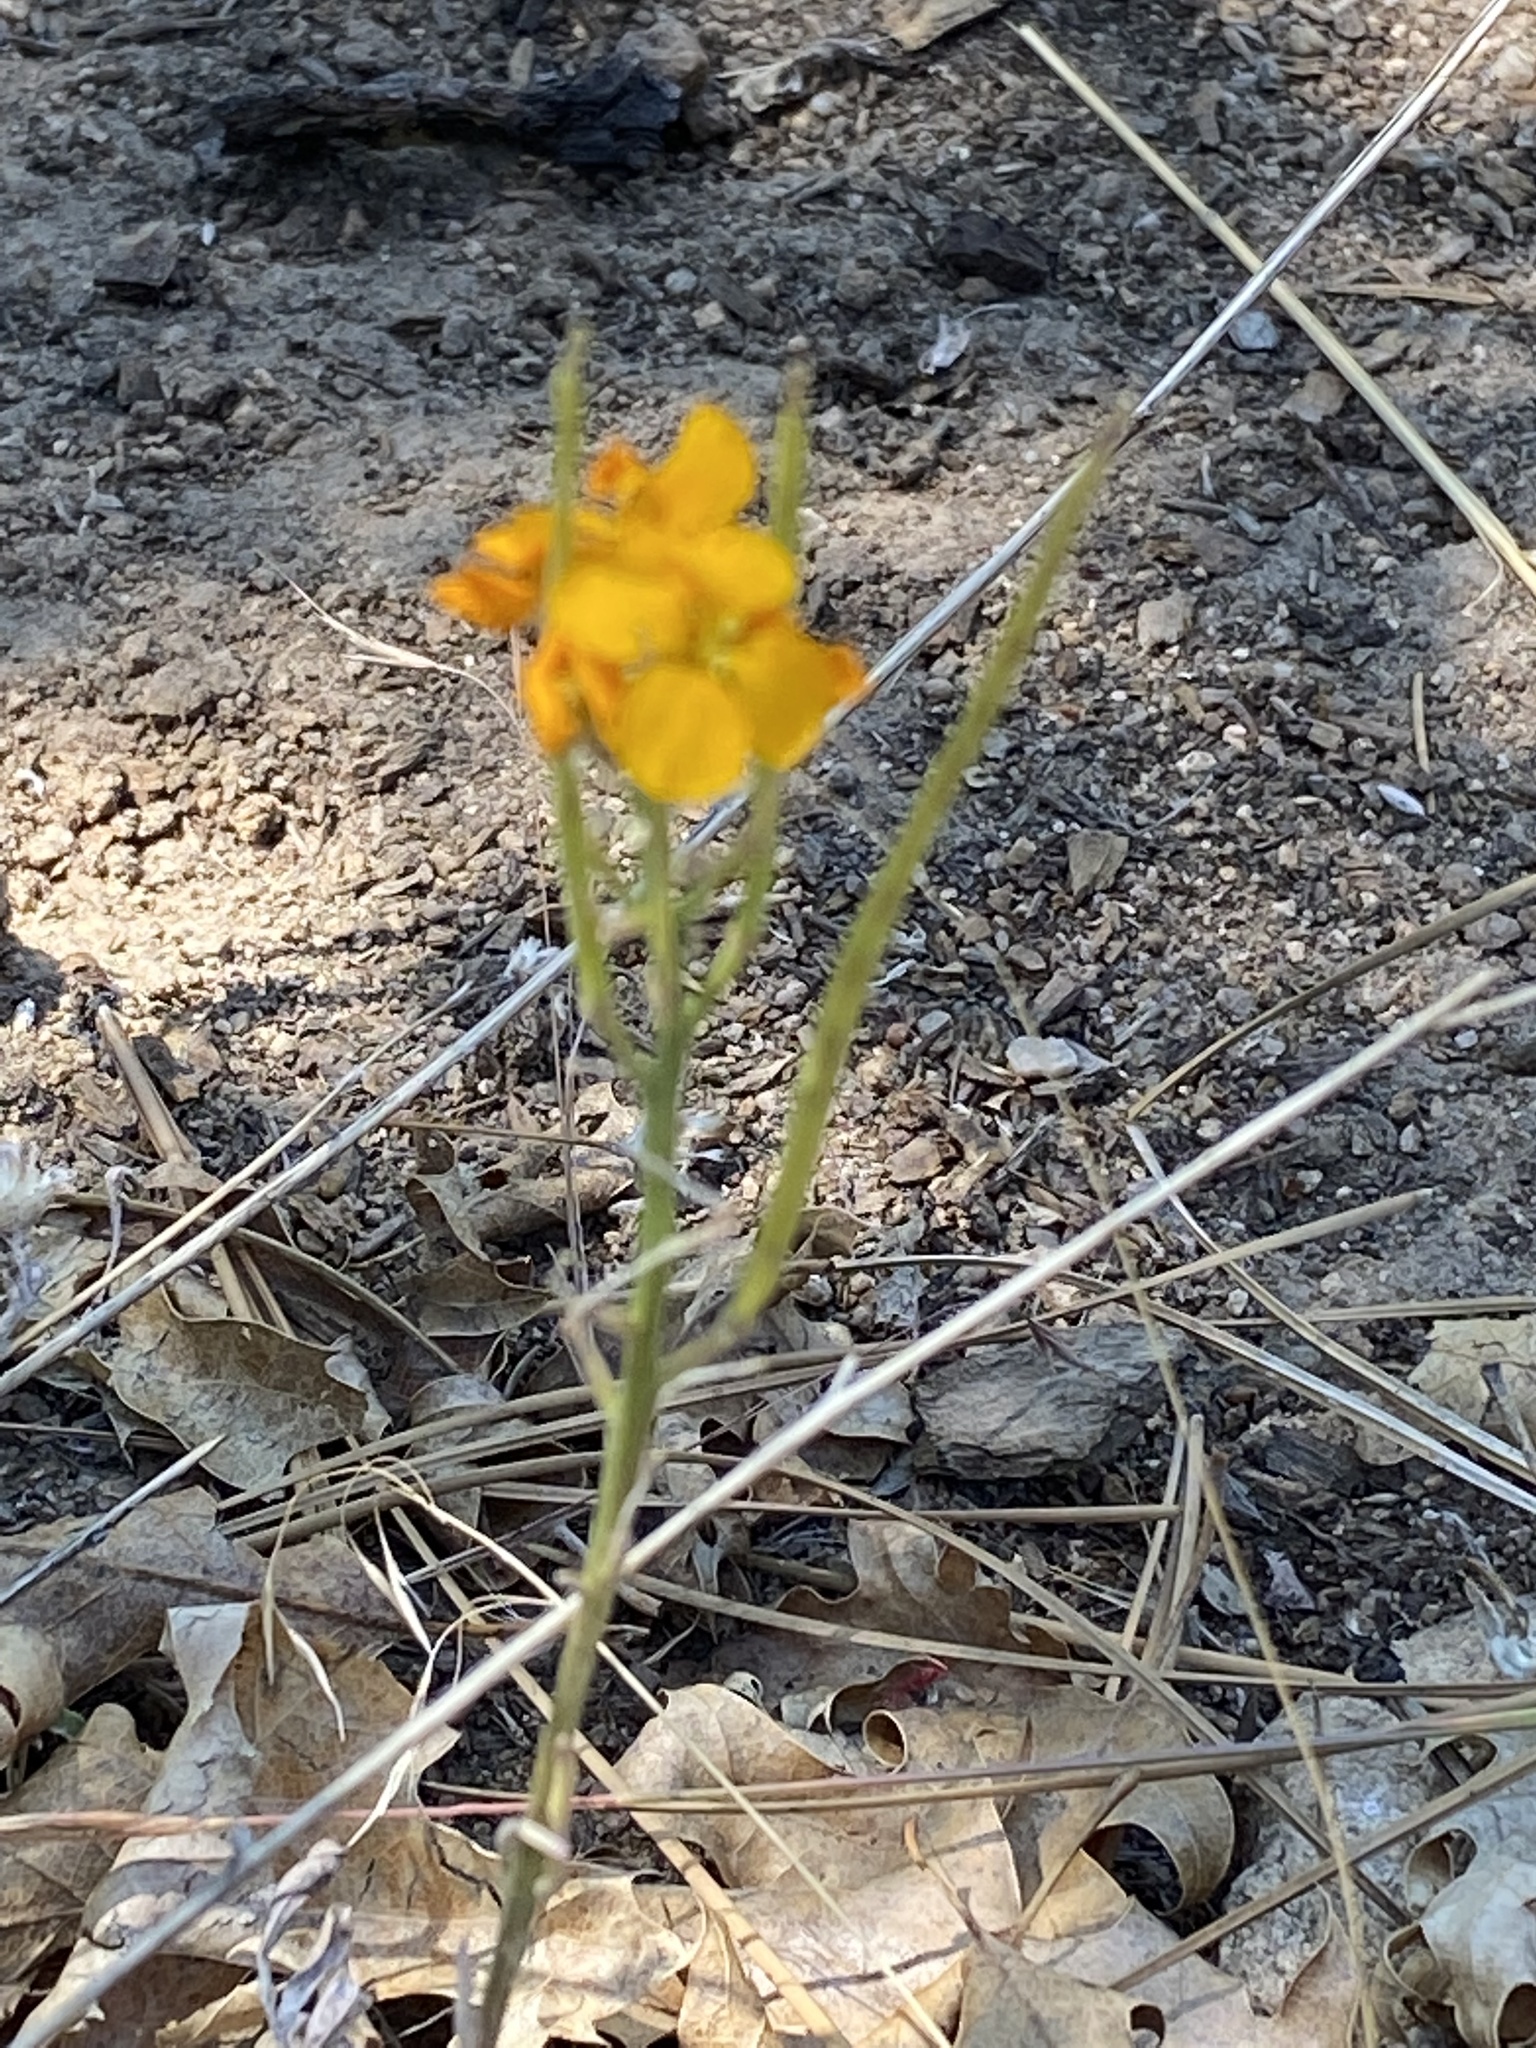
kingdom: Plantae
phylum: Tracheophyta
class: Magnoliopsida
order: Brassicales
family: Brassicaceae
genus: Erysimum
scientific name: Erysimum capitatum
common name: Western wallflower
